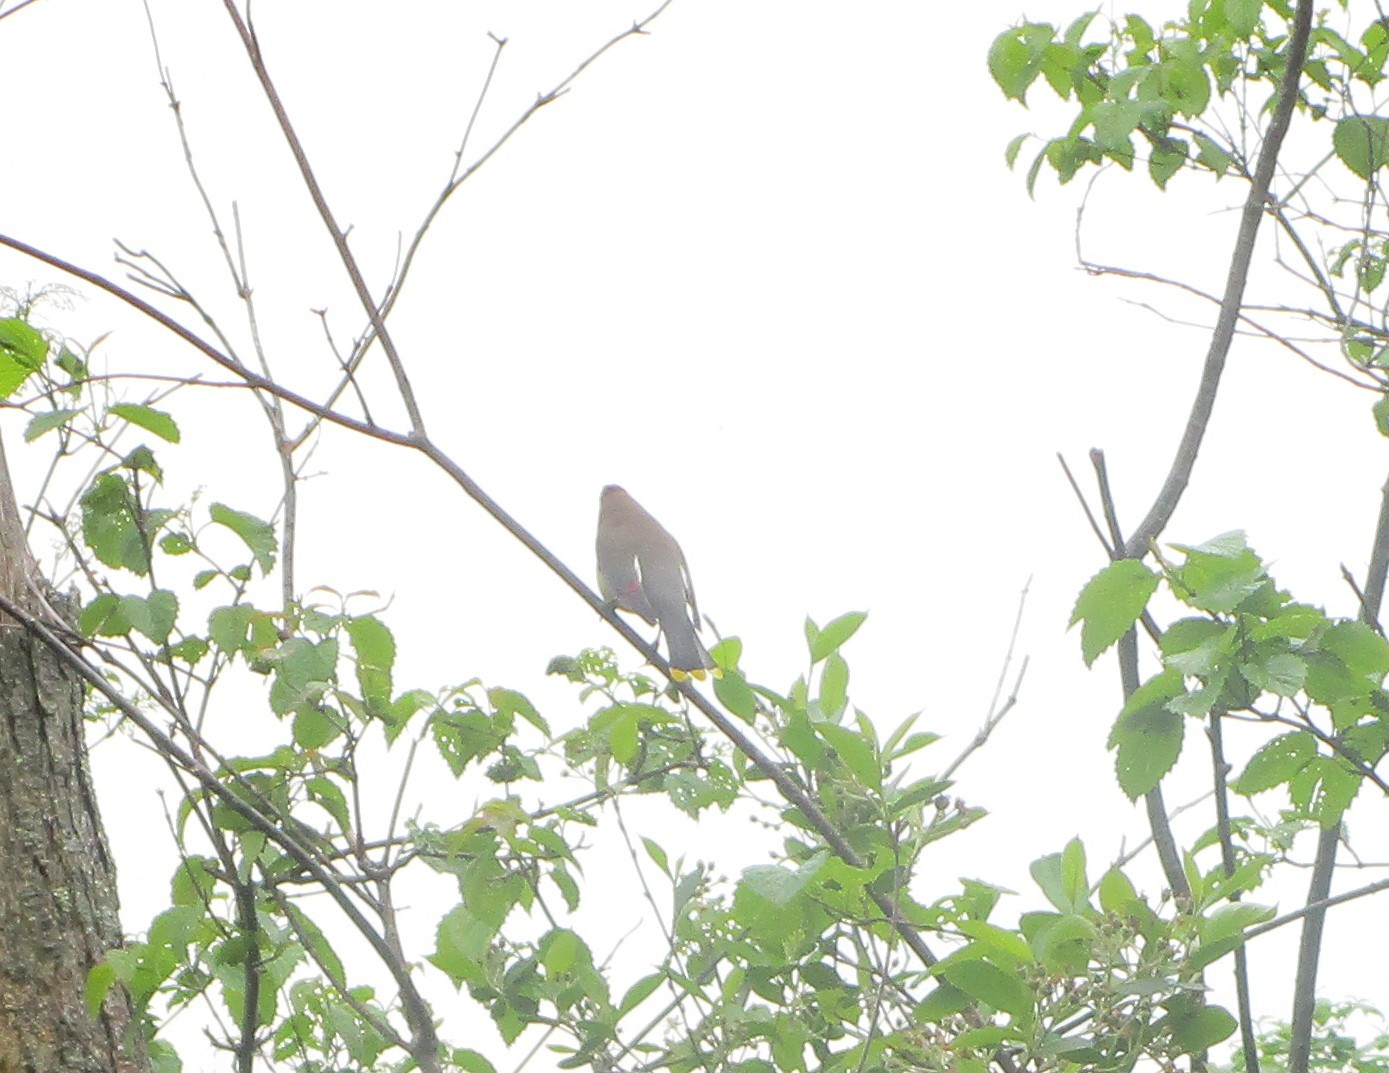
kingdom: Animalia
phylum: Chordata
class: Aves
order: Passeriformes
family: Bombycillidae
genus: Bombycilla
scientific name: Bombycilla cedrorum
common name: Cedar waxwing
